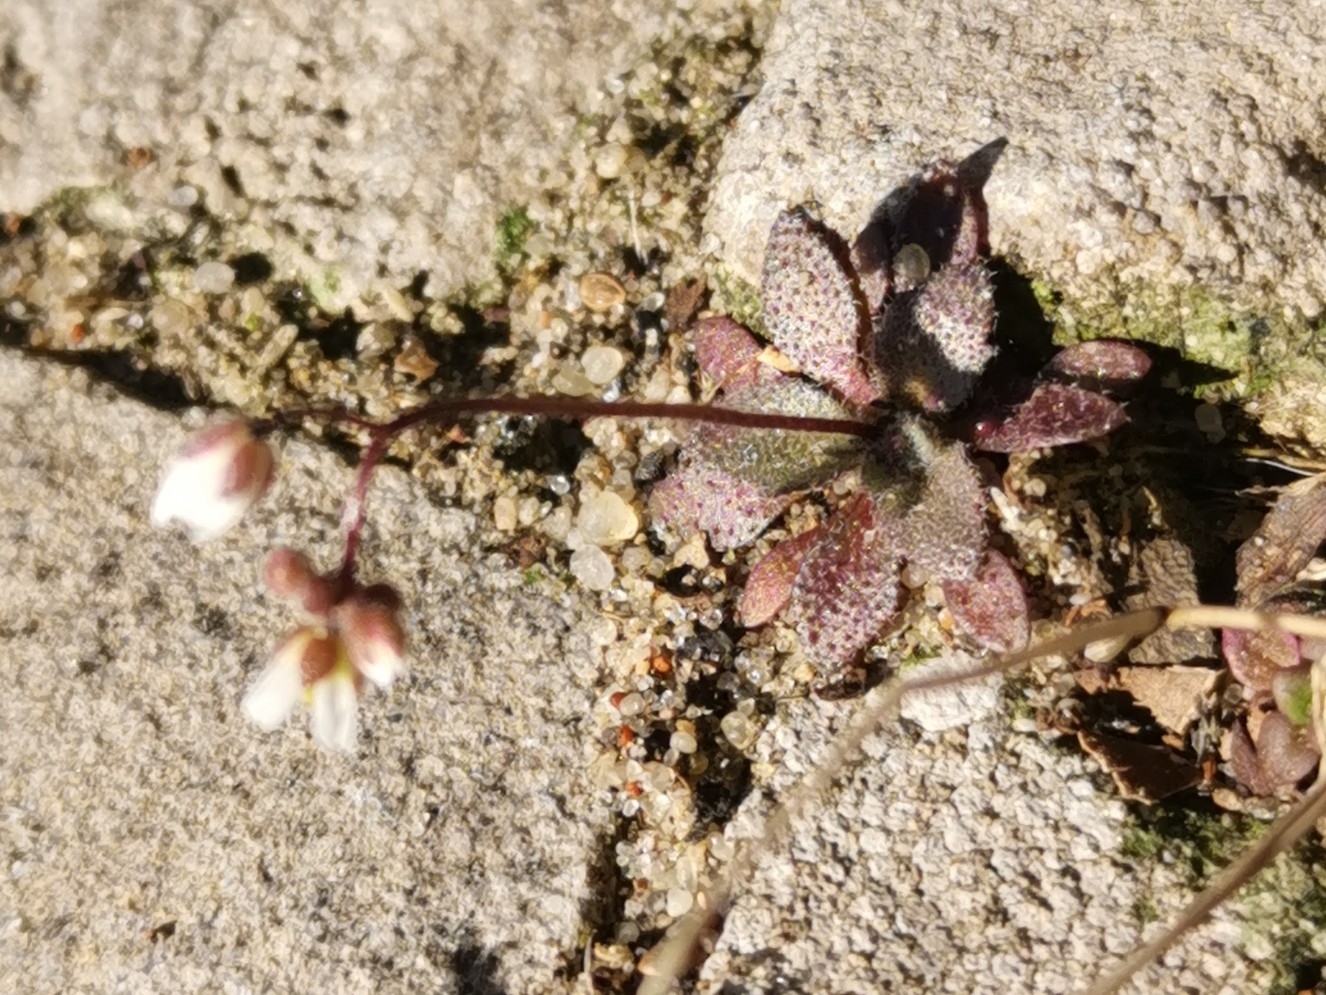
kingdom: Plantae
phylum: Tracheophyta
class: Magnoliopsida
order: Brassicales
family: Brassicaceae
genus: Draba
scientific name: Draba verna
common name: Spring draba
